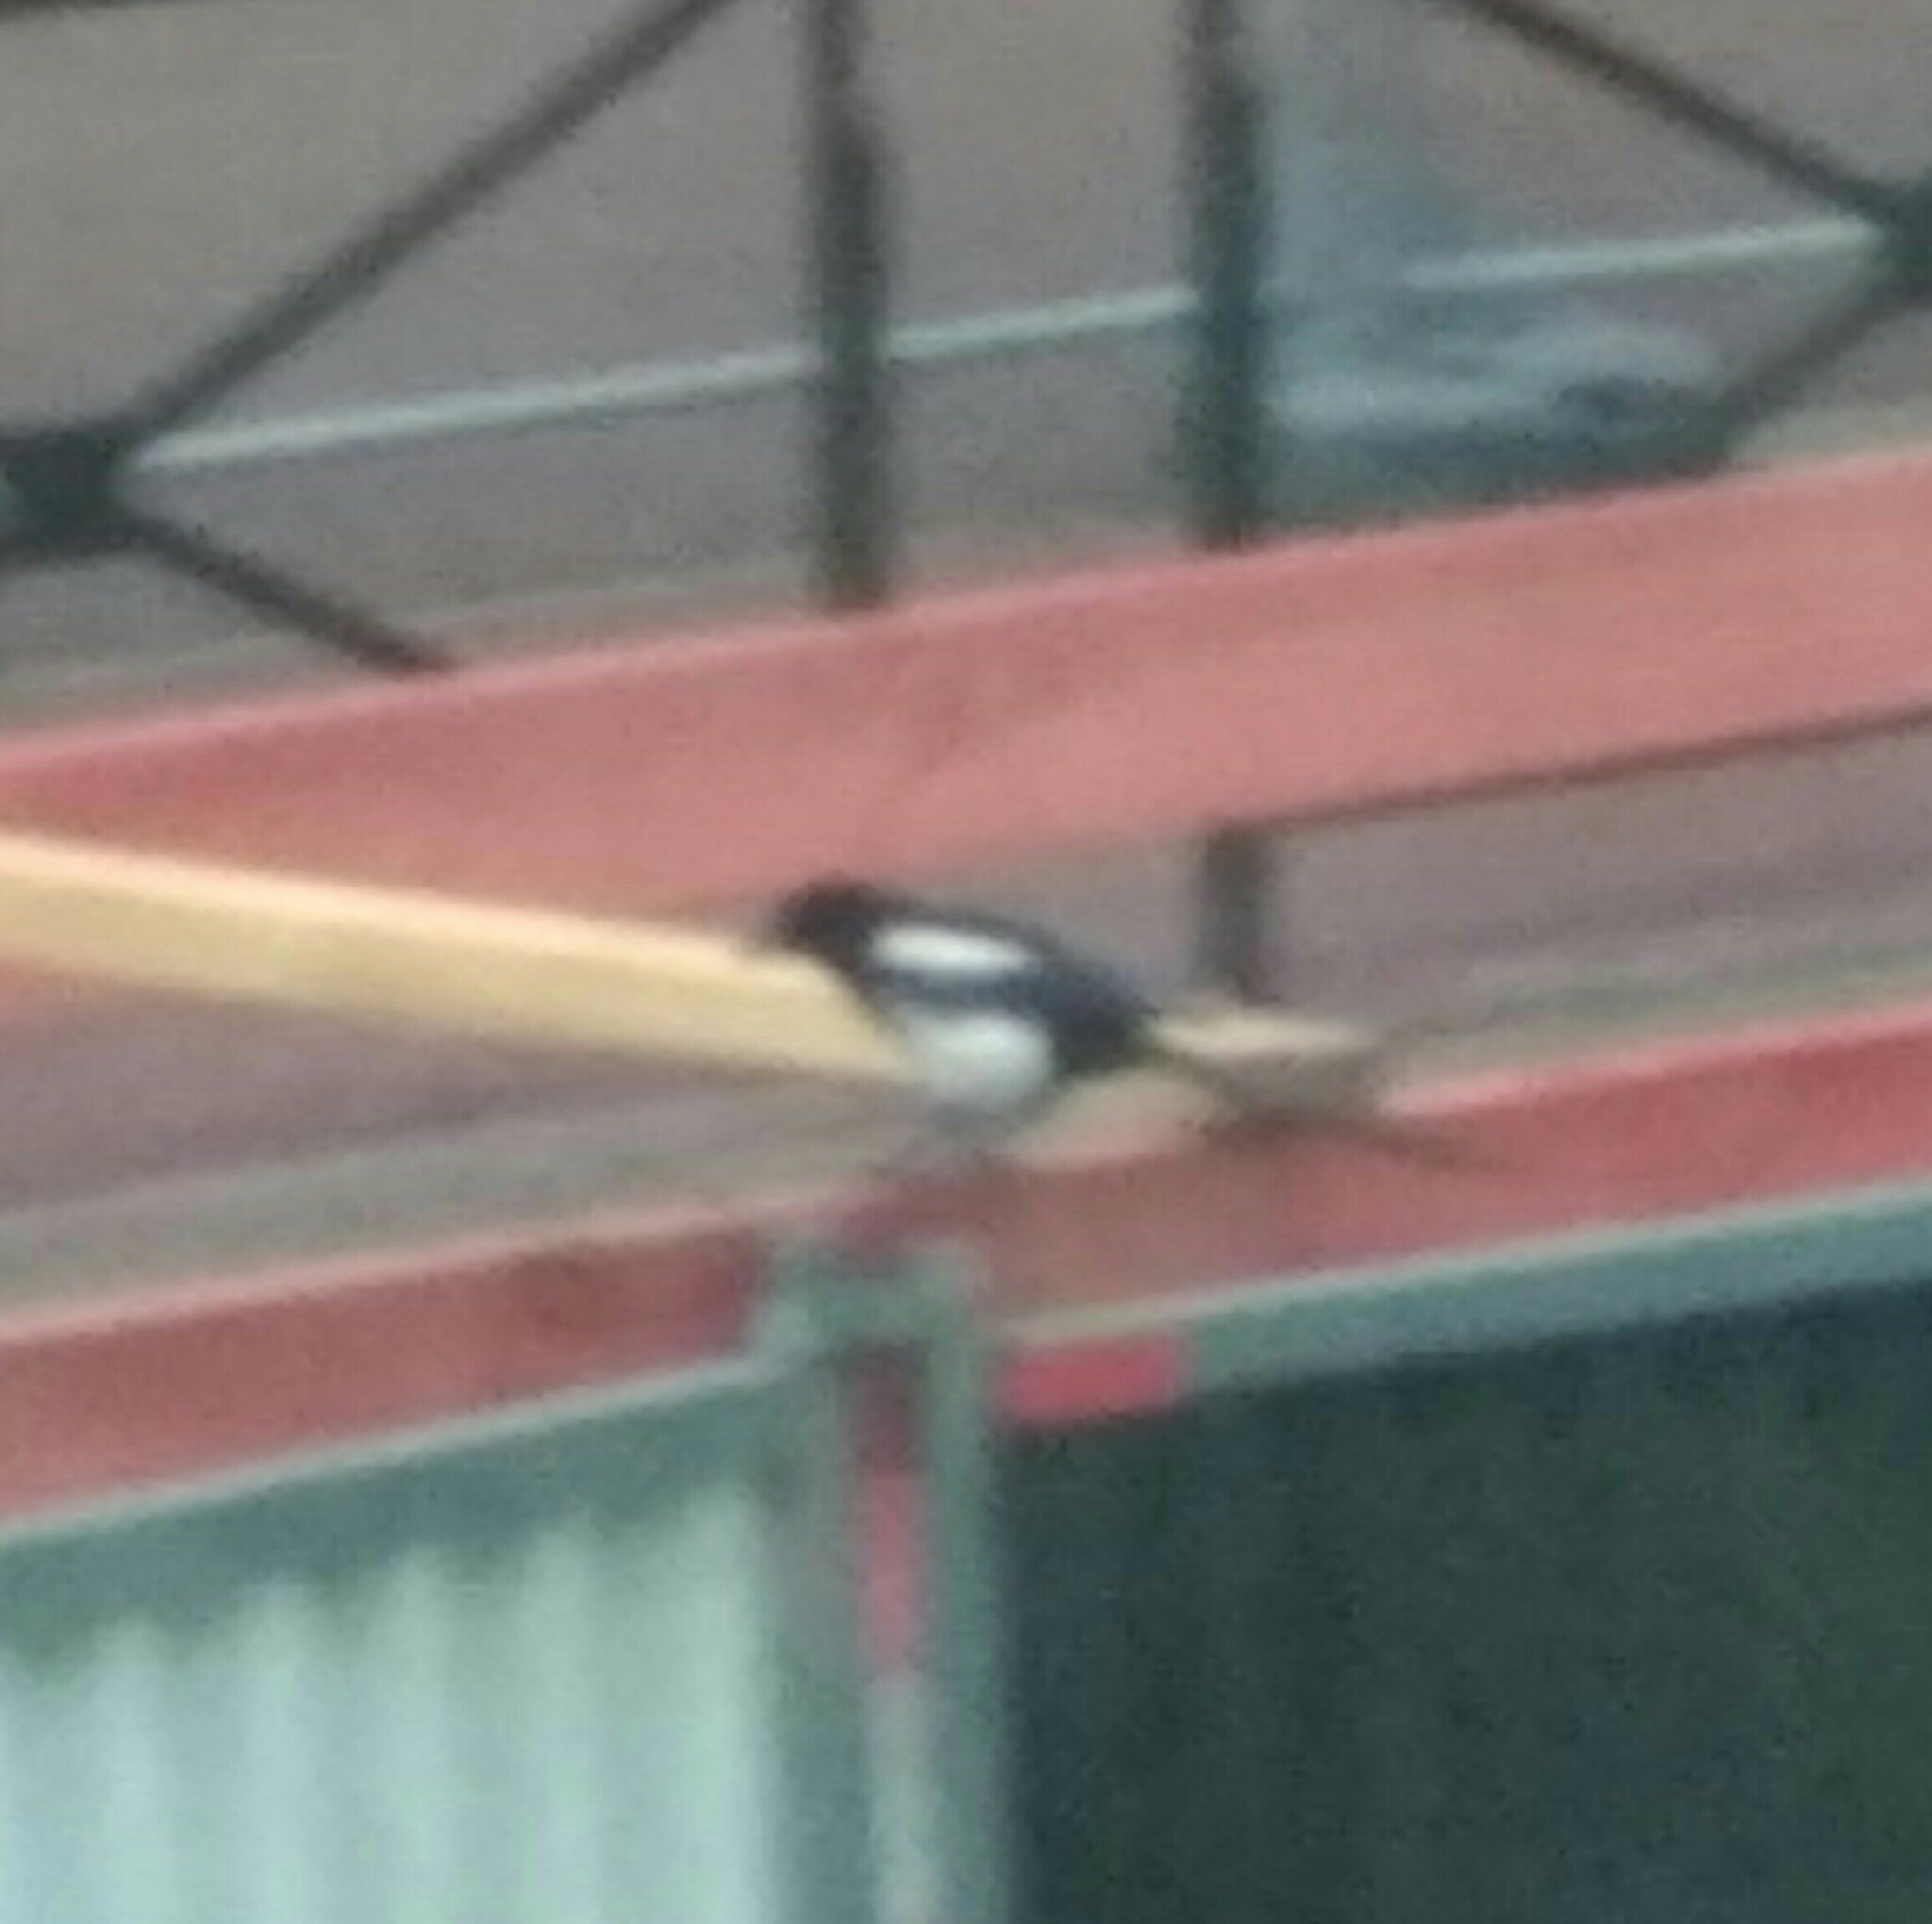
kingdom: Animalia
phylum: Chordata
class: Aves
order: Passeriformes
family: Corvidae
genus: Pica
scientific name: Pica pica
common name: Eurasian magpie
